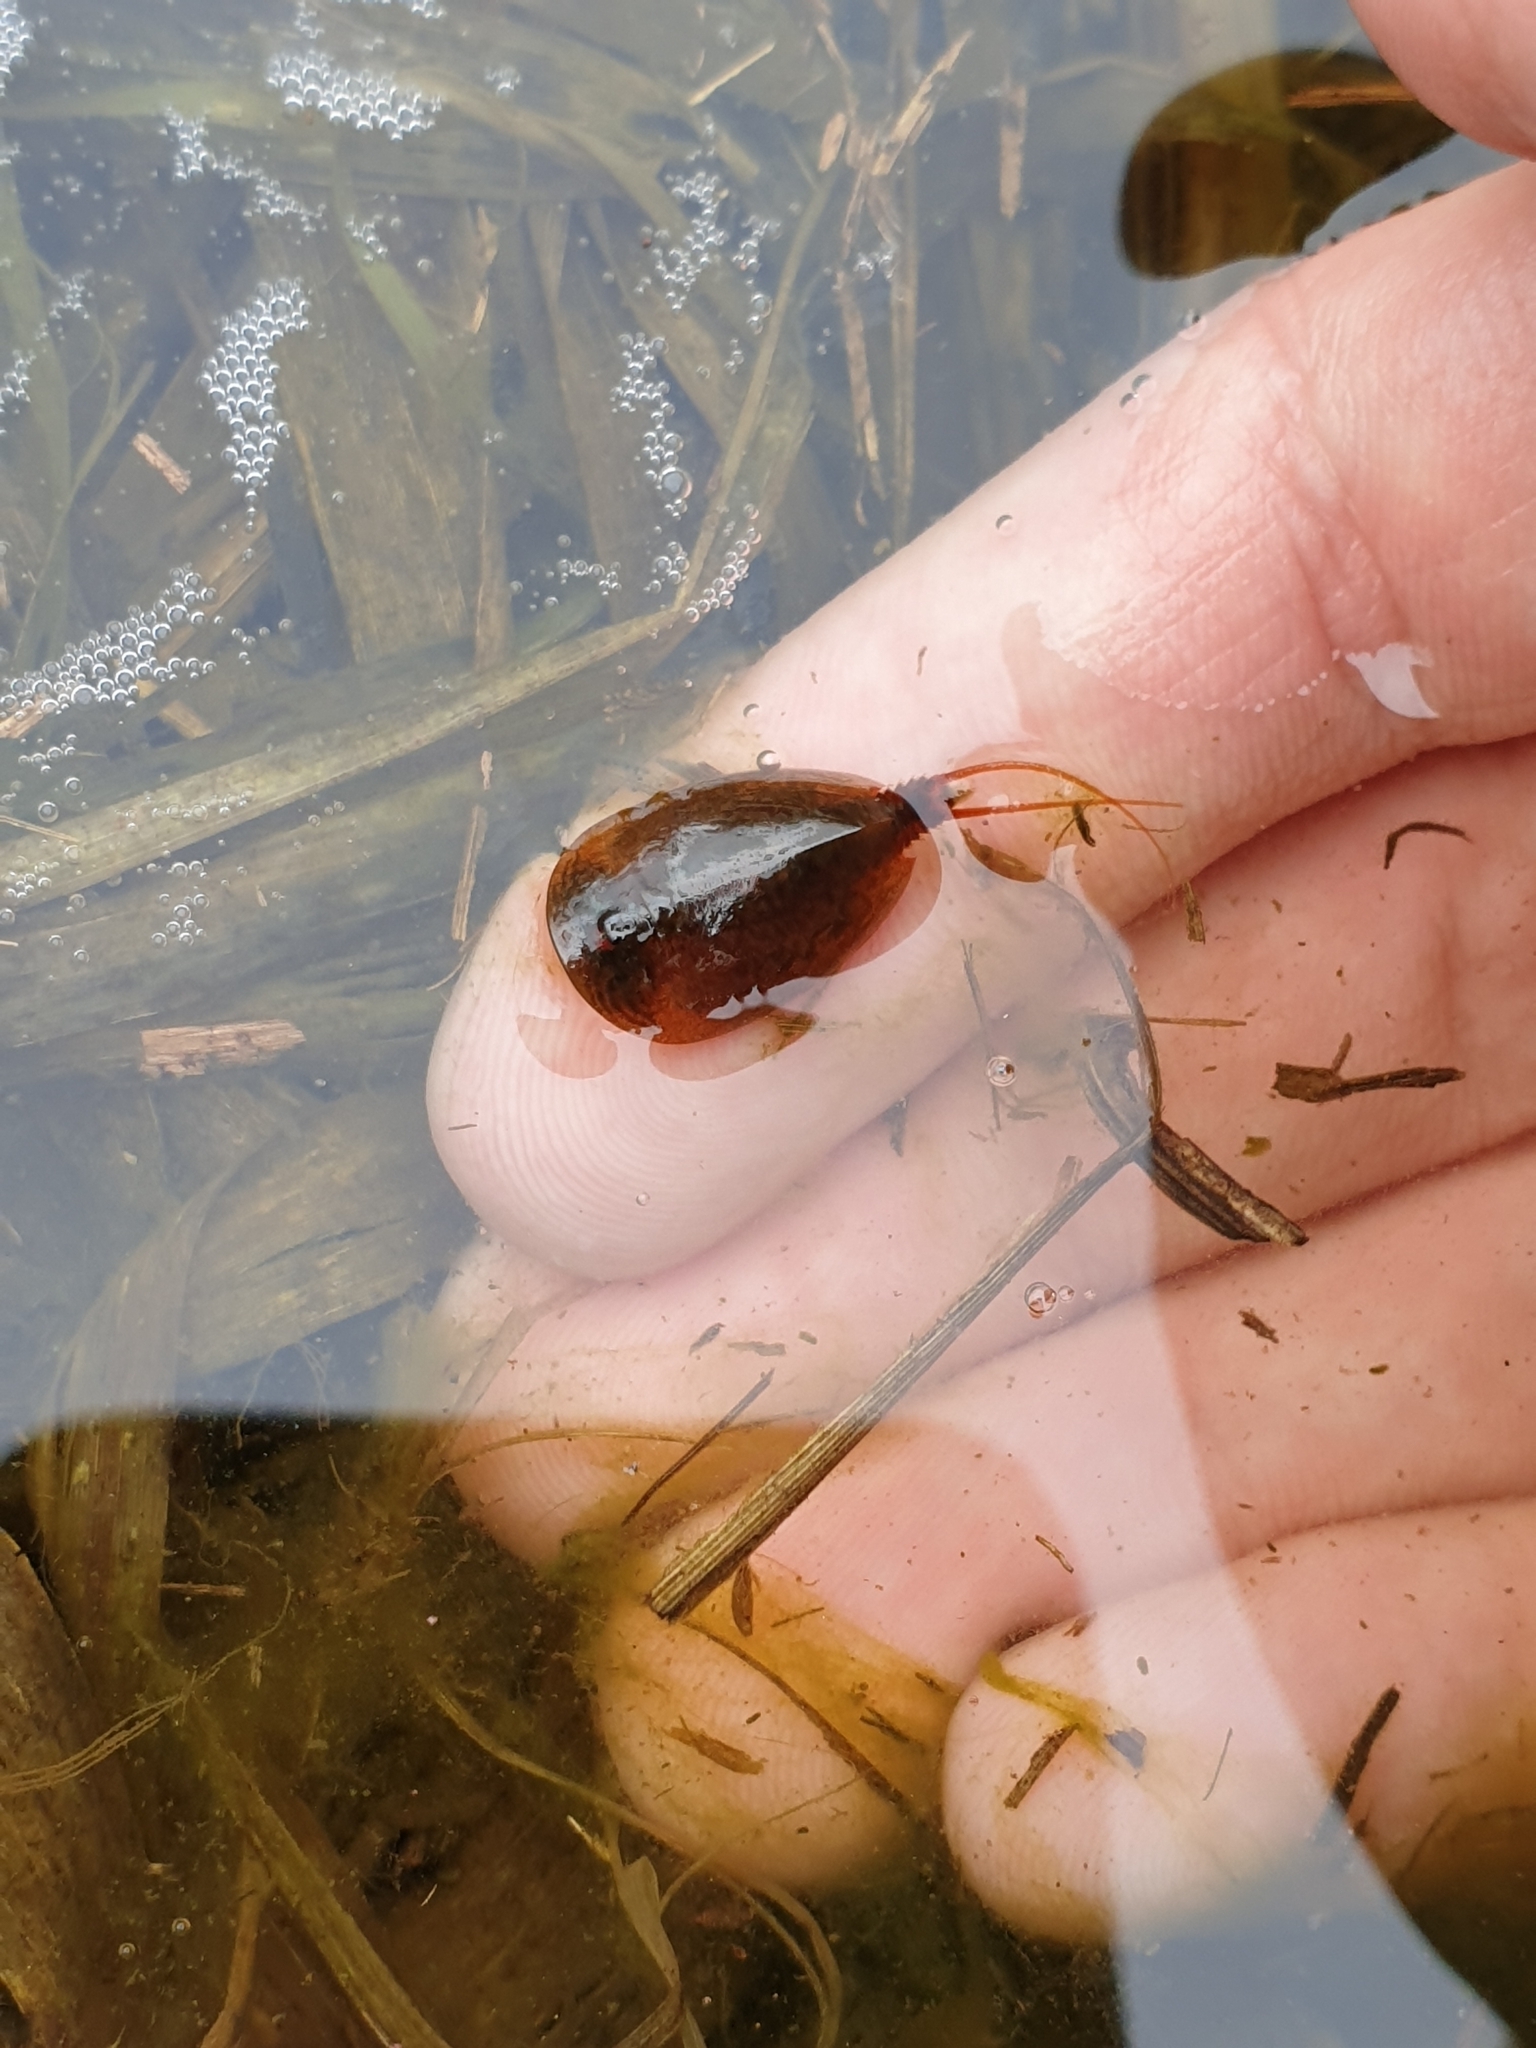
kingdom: Animalia
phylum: Arthropoda
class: Branchiopoda
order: Notostraca
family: Triopsidae
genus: Lepidurus
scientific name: Lepidurus apus
